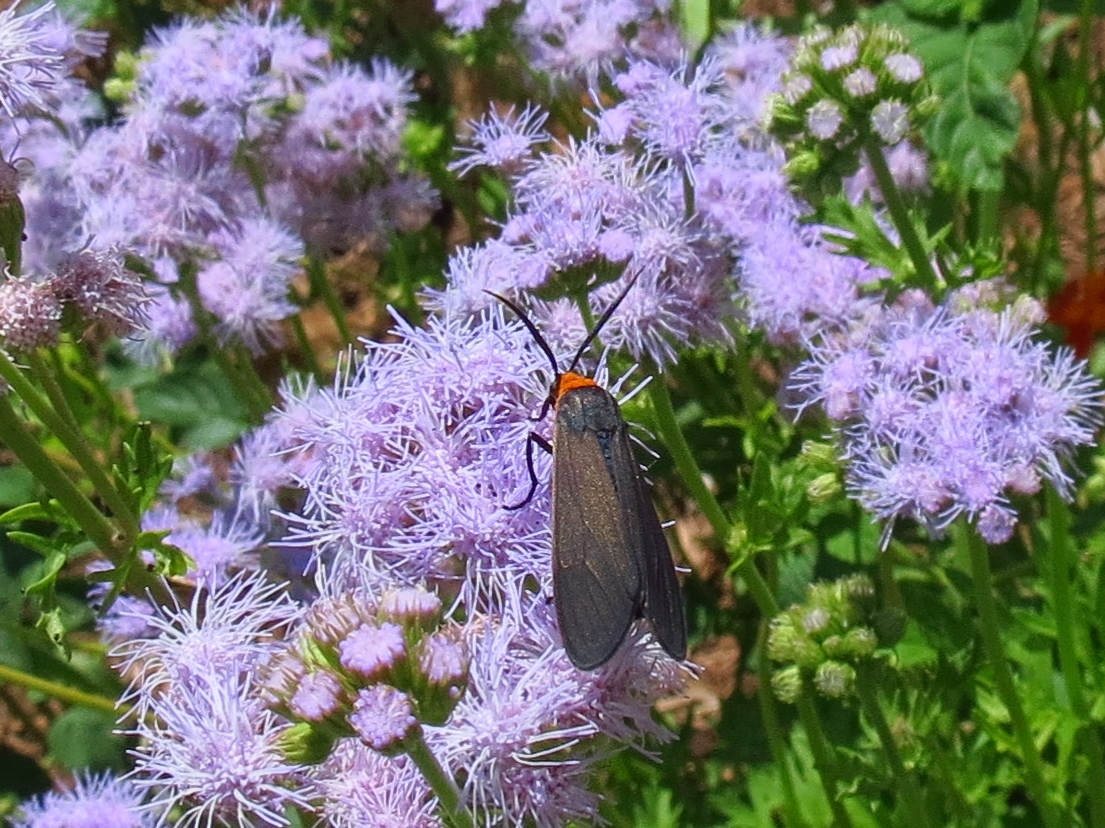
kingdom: Animalia
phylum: Arthropoda
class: Insecta
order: Lepidoptera
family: Erebidae
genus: Cisseps
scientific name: Cisseps fulvicollis
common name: Yellow-collared scape moth
